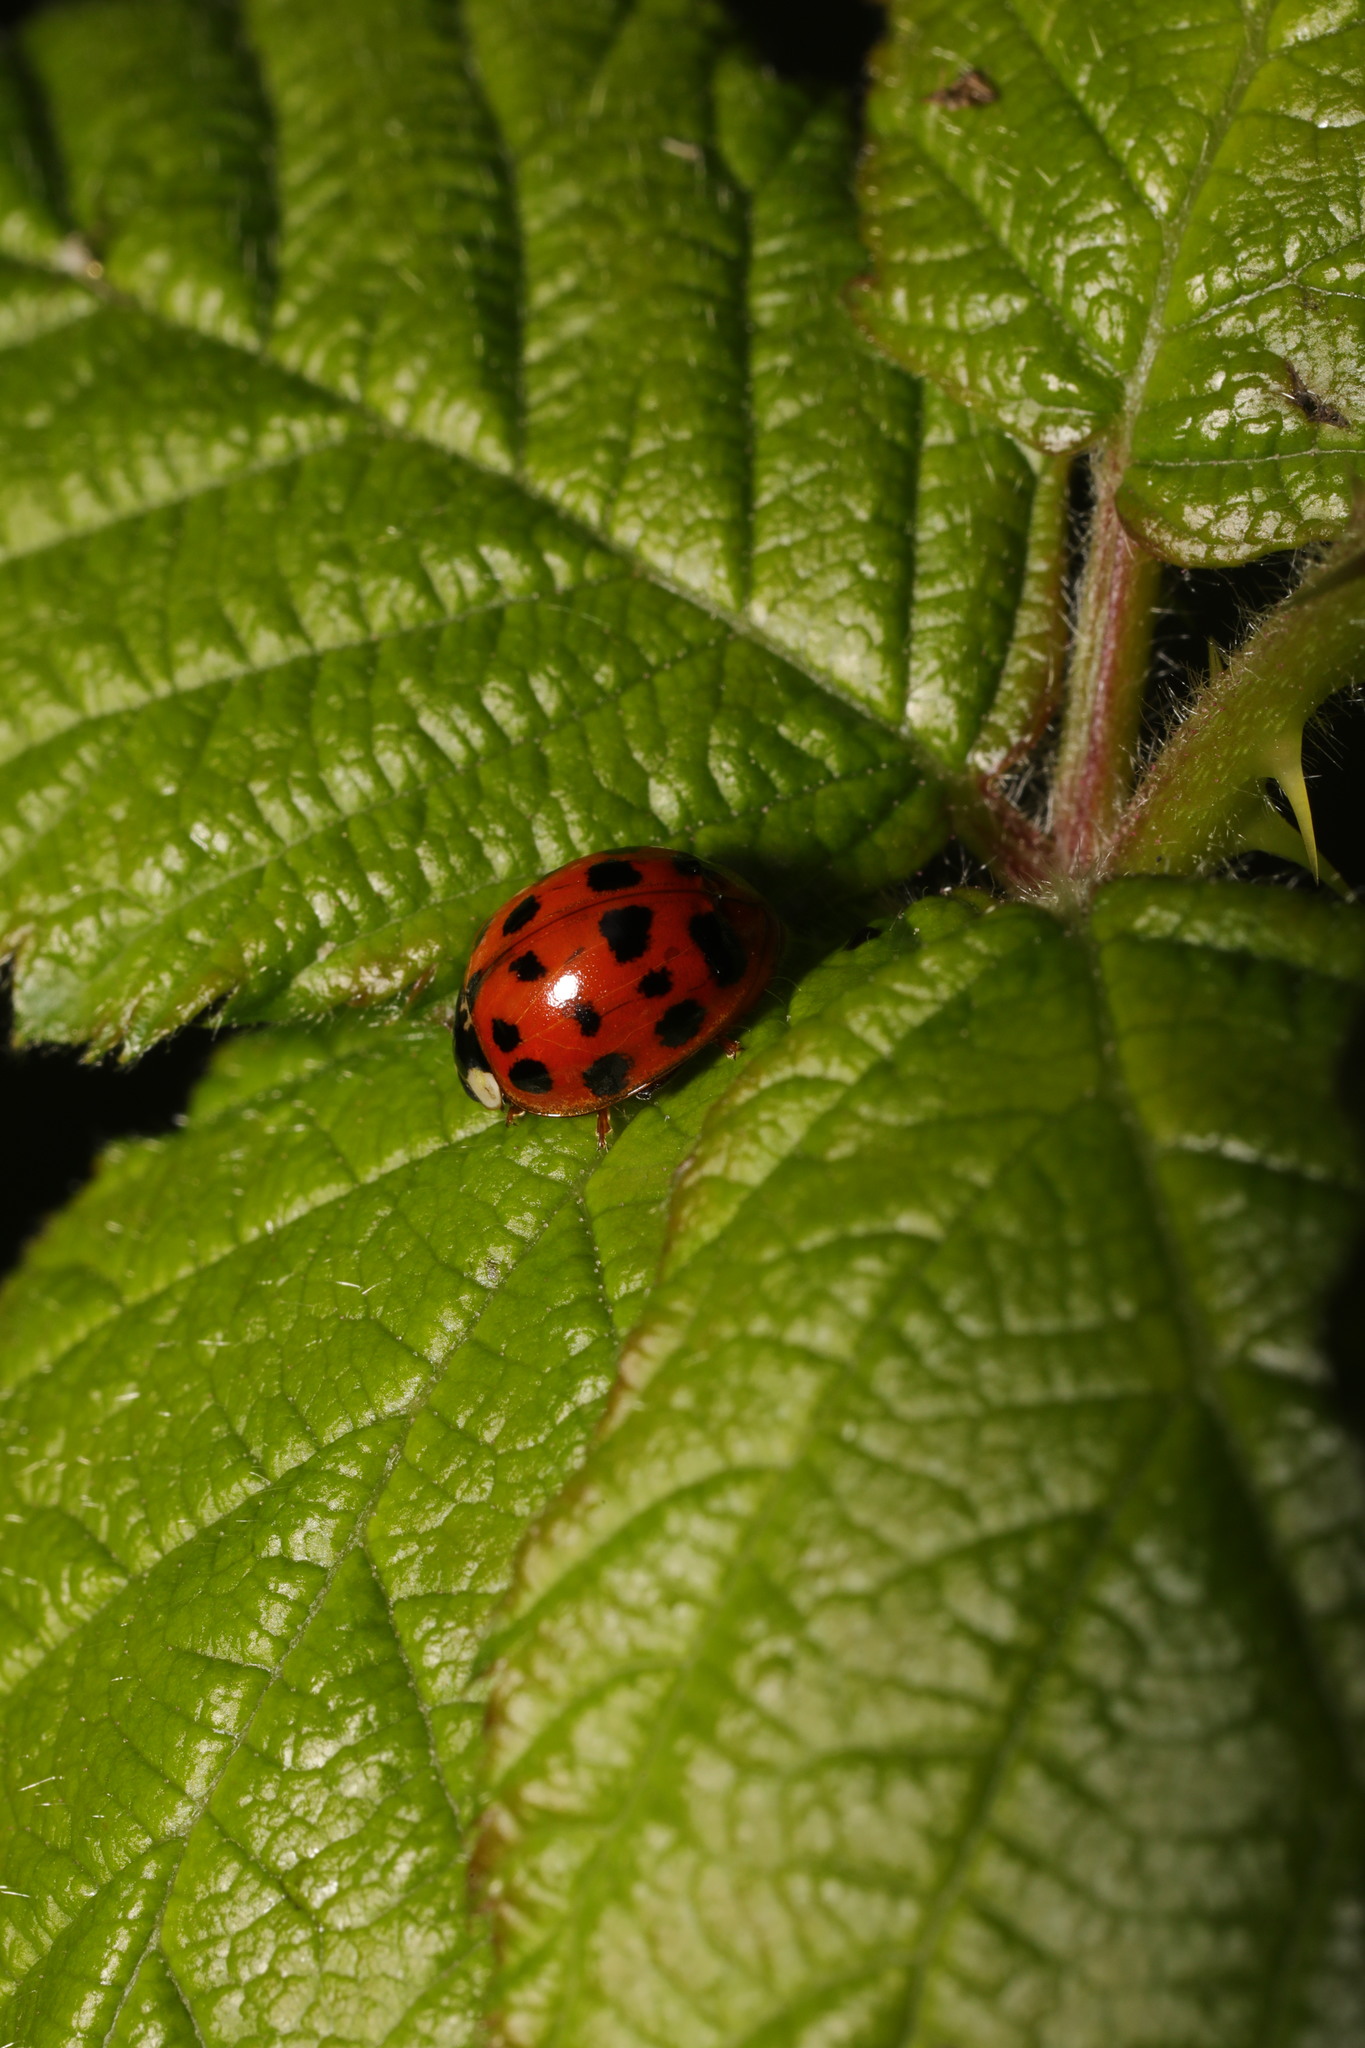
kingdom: Animalia
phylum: Arthropoda
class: Insecta
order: Coleoptera
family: Coccinellidae
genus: Harmonia
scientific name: Harmonia axyridis
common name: Harlequin ladybird
